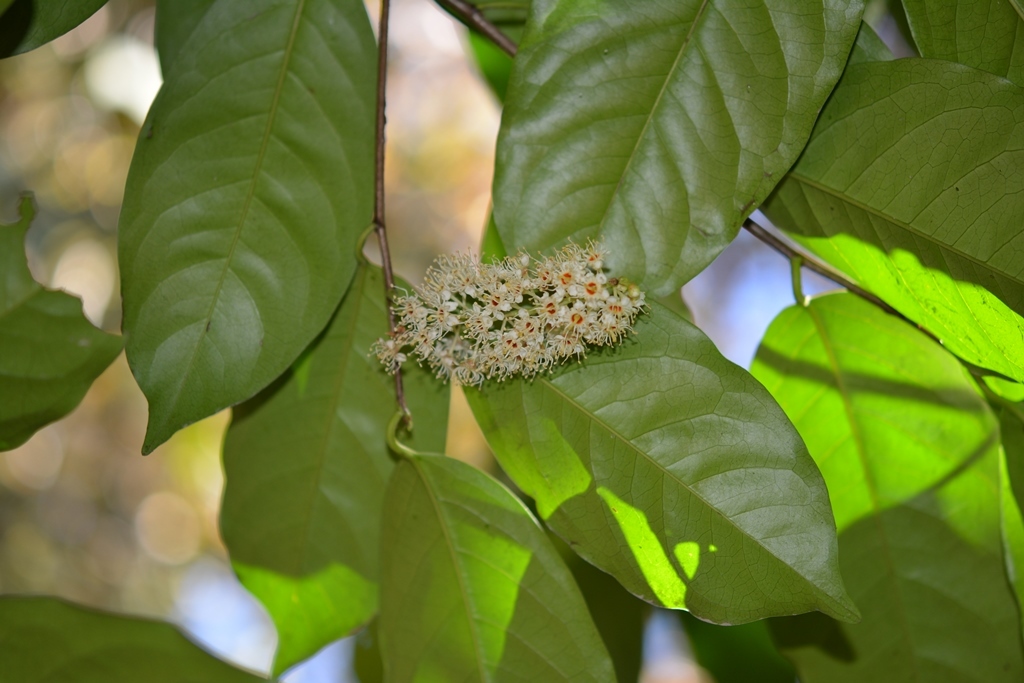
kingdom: Plantae
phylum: Tracheophyta
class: Magnoliopsida
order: Rosales
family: Rosaceae
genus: Prunus
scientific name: Prunus tetradenia
